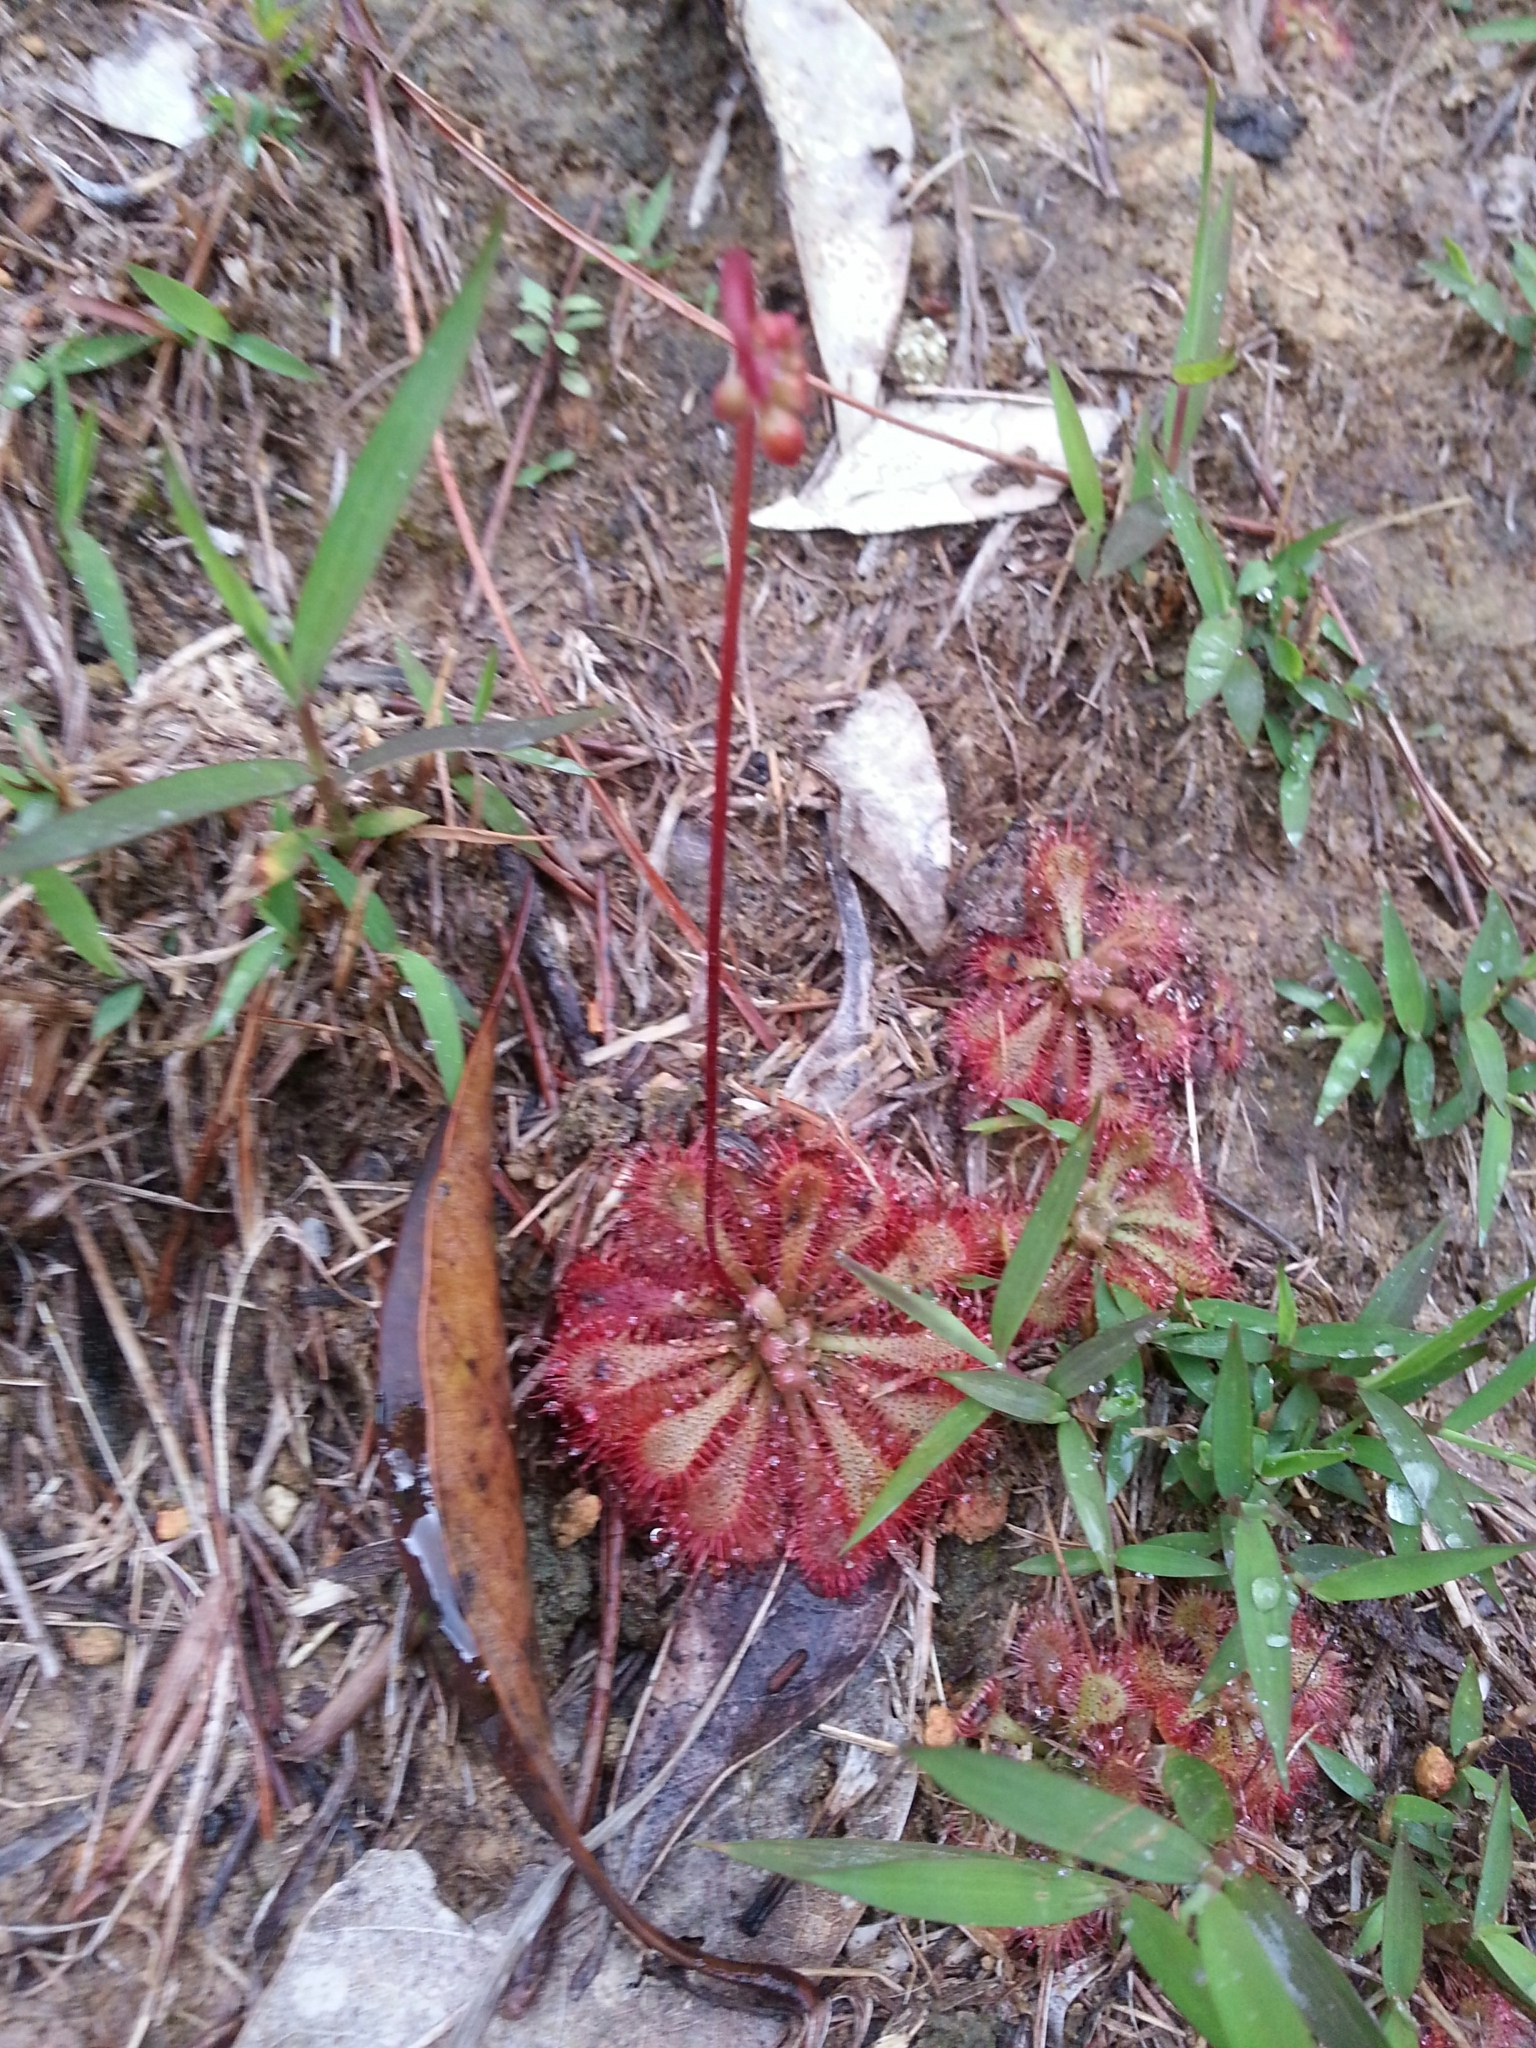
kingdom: Plantae
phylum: Tracheophyta
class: Magnoliopsida
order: Caryophyllales
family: Droseraceae
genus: Drosera
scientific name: Drosera spatulata
